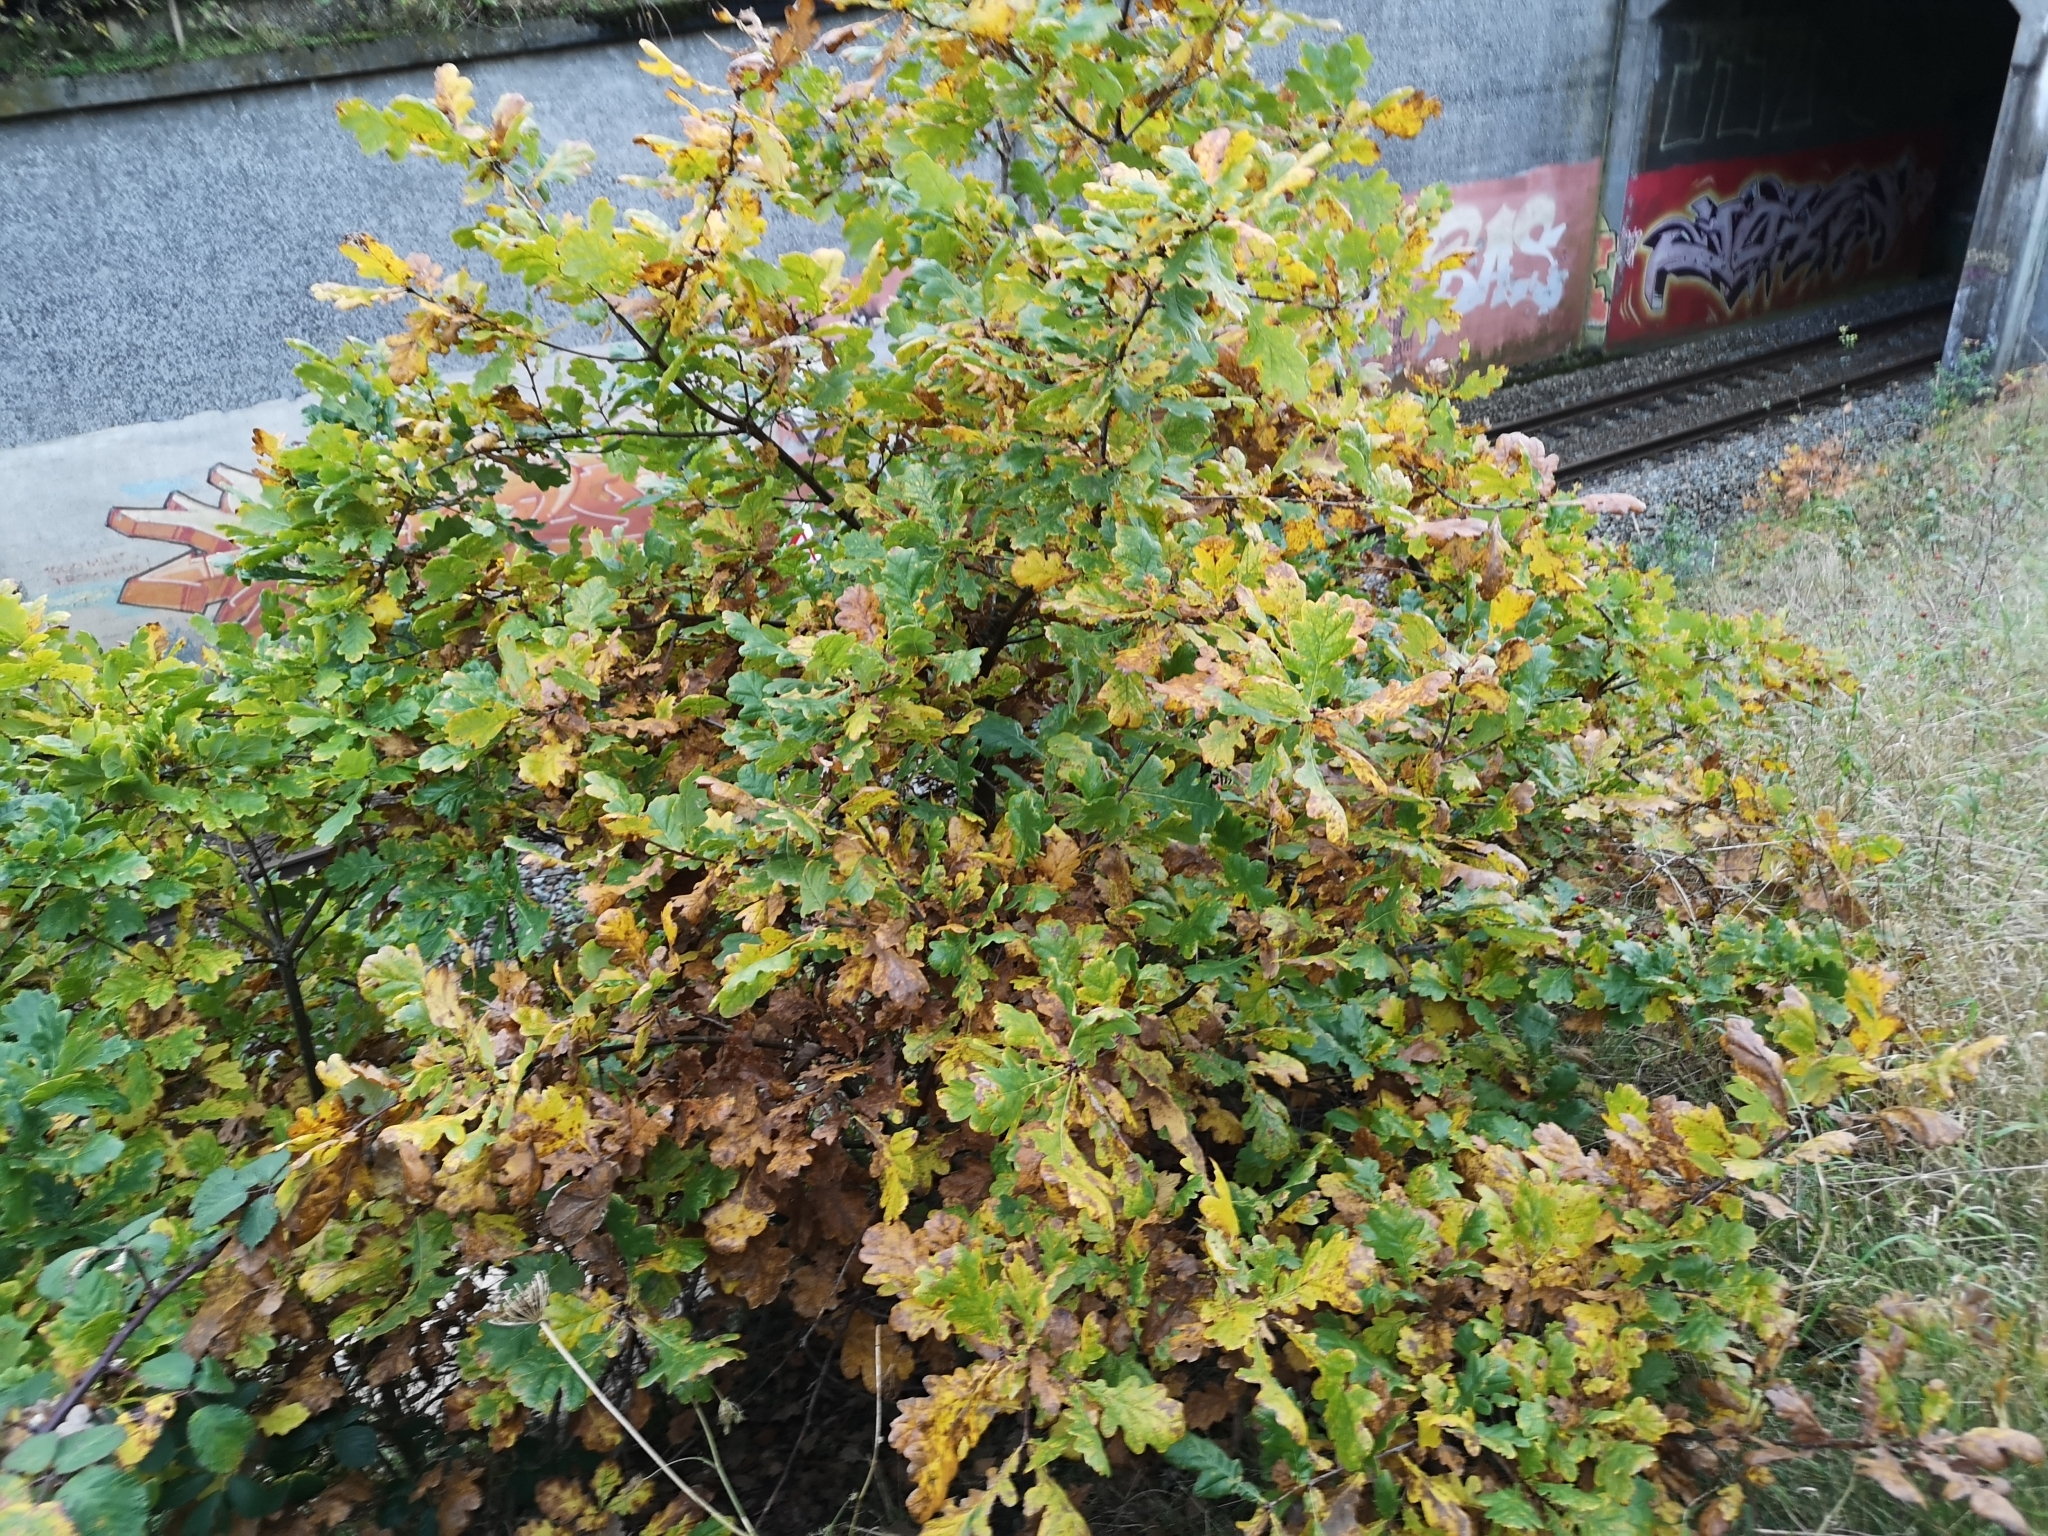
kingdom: Plantae
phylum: Tracheophyta
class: Magnoliopsida
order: Fagales
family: Fagaceae
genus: Quercus
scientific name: Quercus robur
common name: Pedunculate oak
